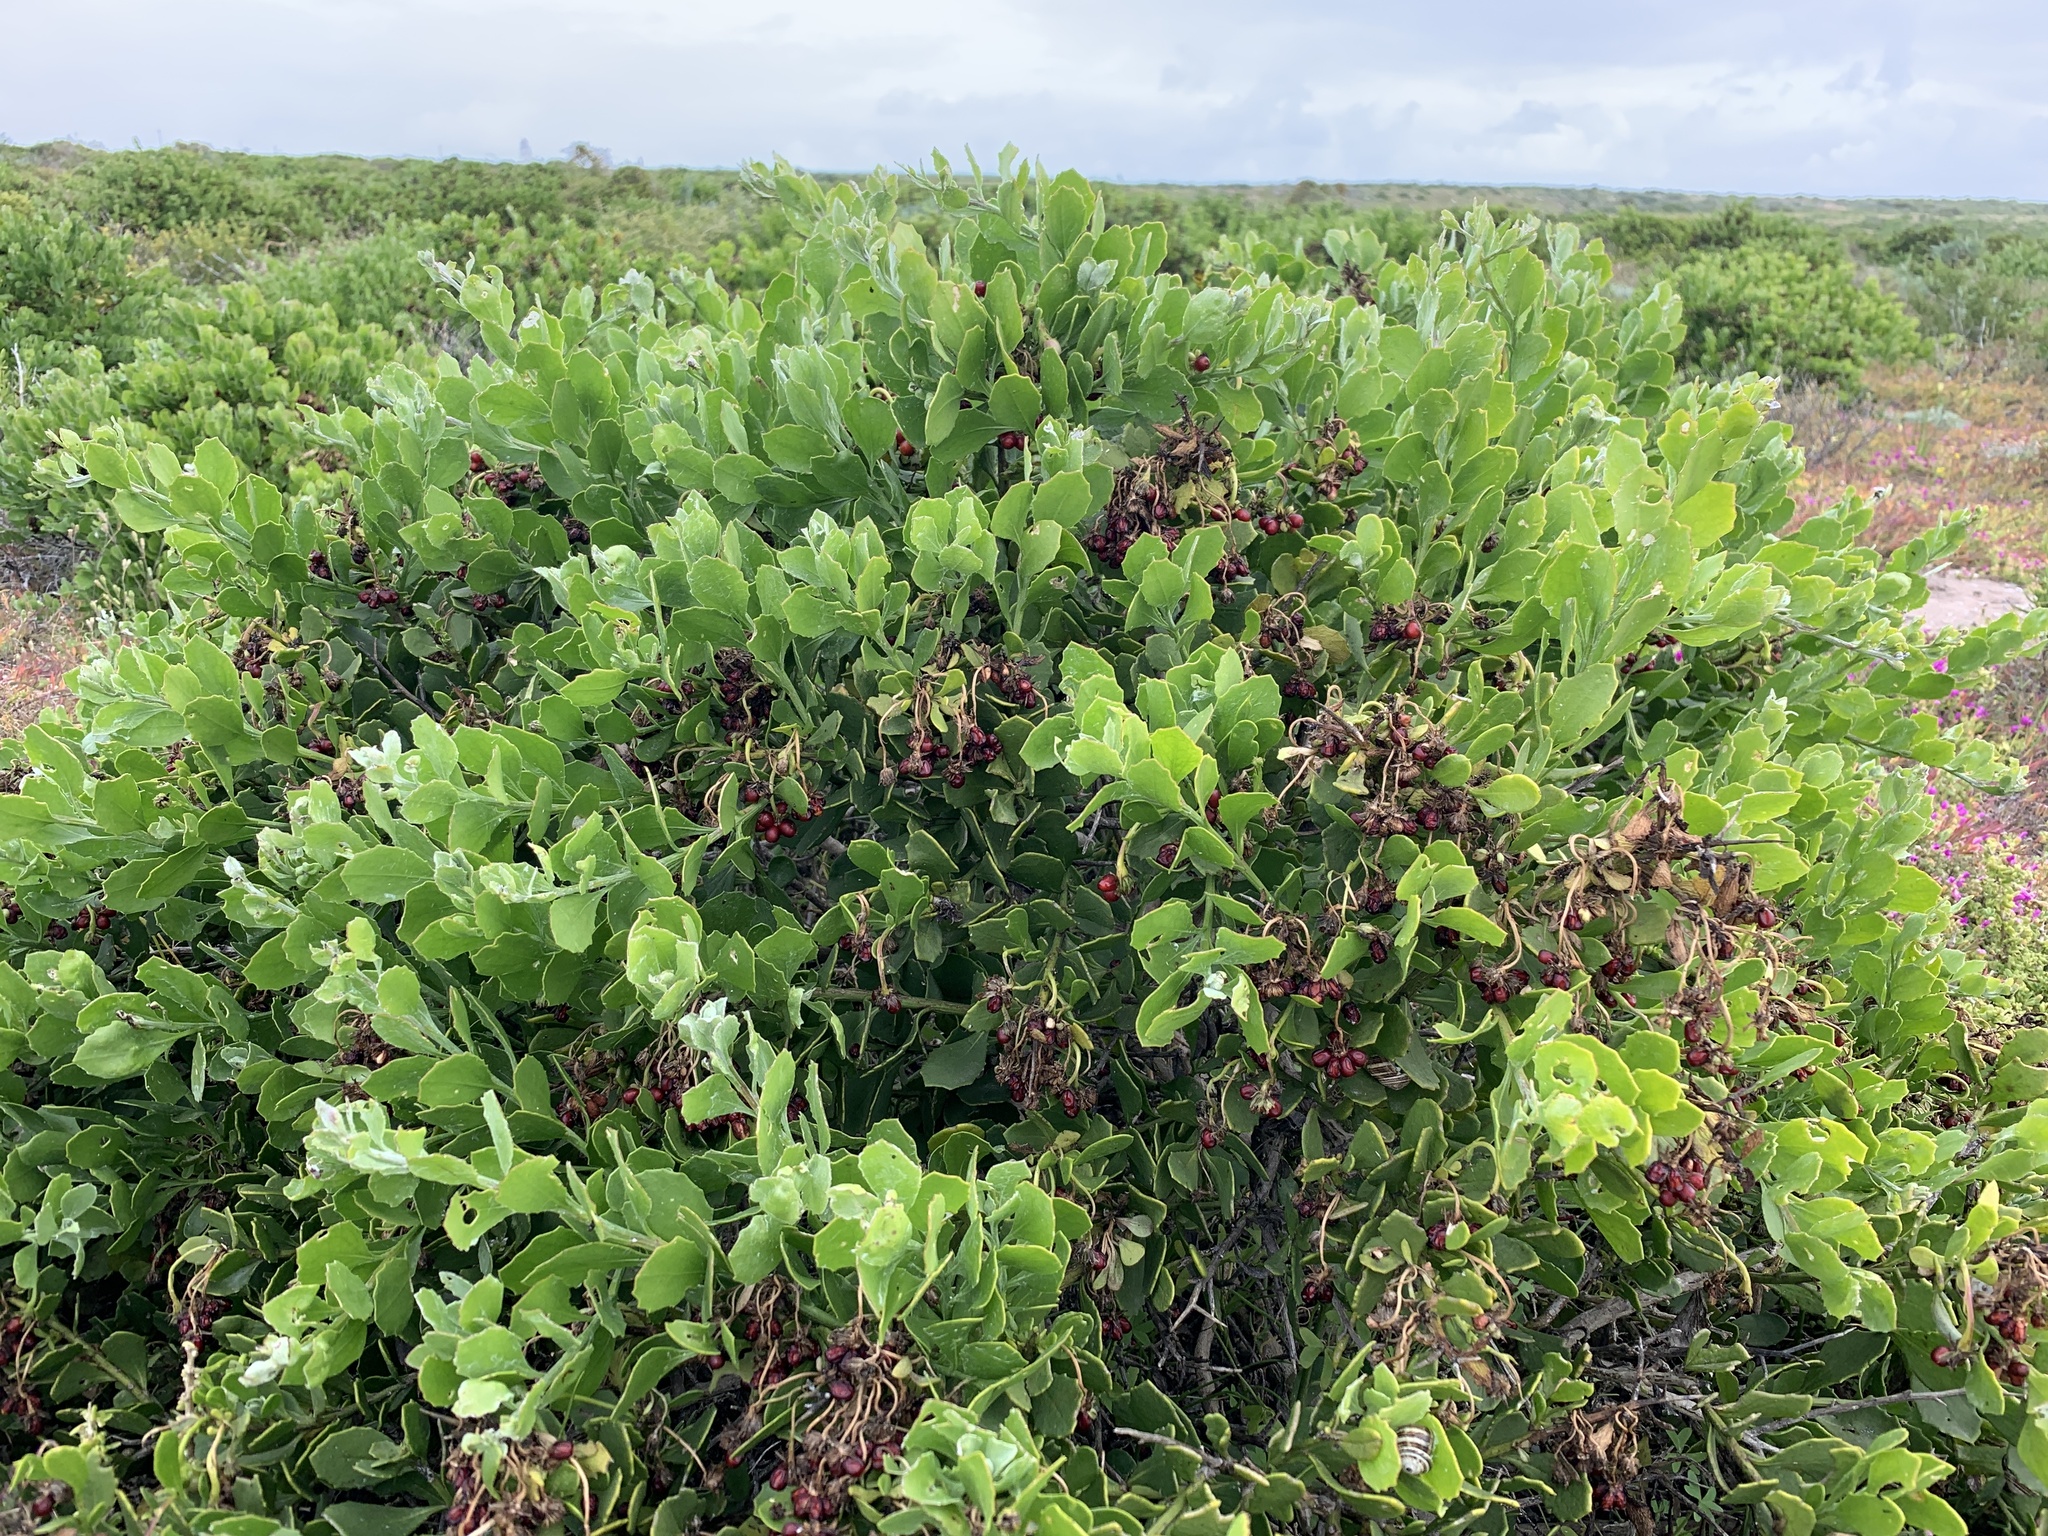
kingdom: Plantae
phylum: Tracheophyta
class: Magnoliopsida
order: Asterales
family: Asteraceae
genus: Osteospermum
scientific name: Osteospermum moniliferum
